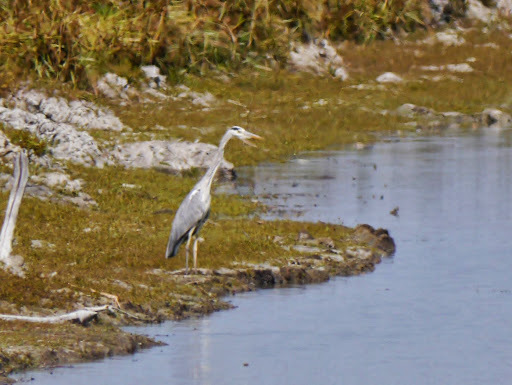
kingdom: Animalia
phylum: Chordata
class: Aves
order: Pelecaniformes
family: Ardeidae
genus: Ardea
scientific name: Ardea cinerea
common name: Grey heron
